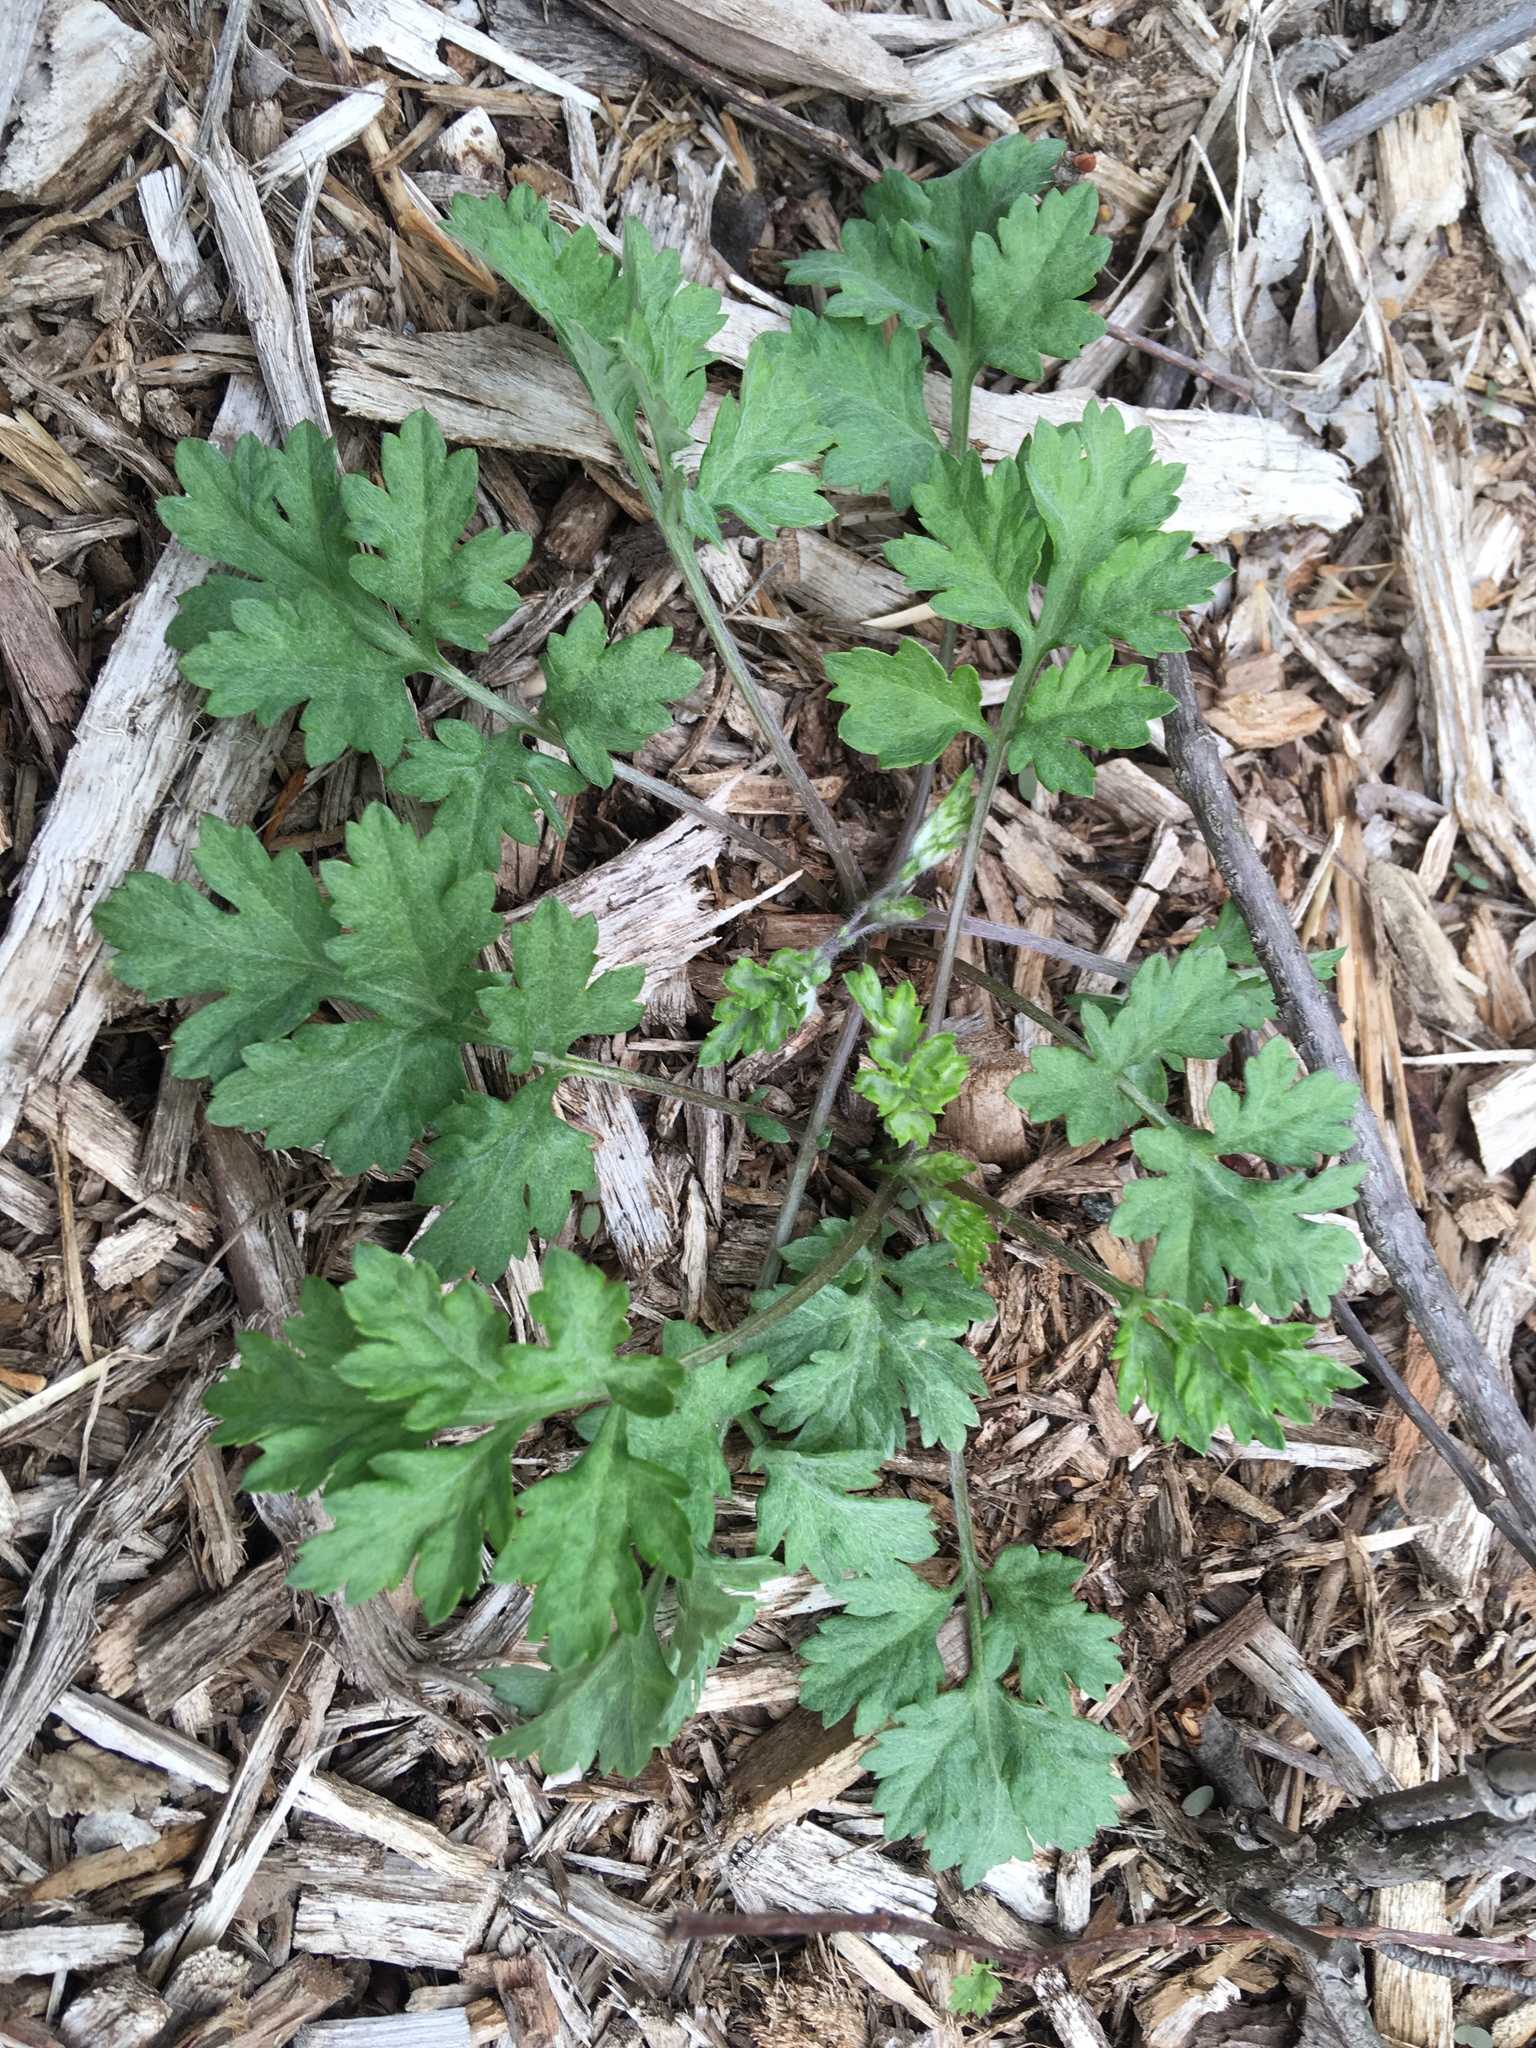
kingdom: Plantae
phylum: Tracheophyta
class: Magnoliopsida
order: Asterales
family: Asteraceae
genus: Artemisia
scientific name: Artemisia vulgaris
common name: Mugwort
